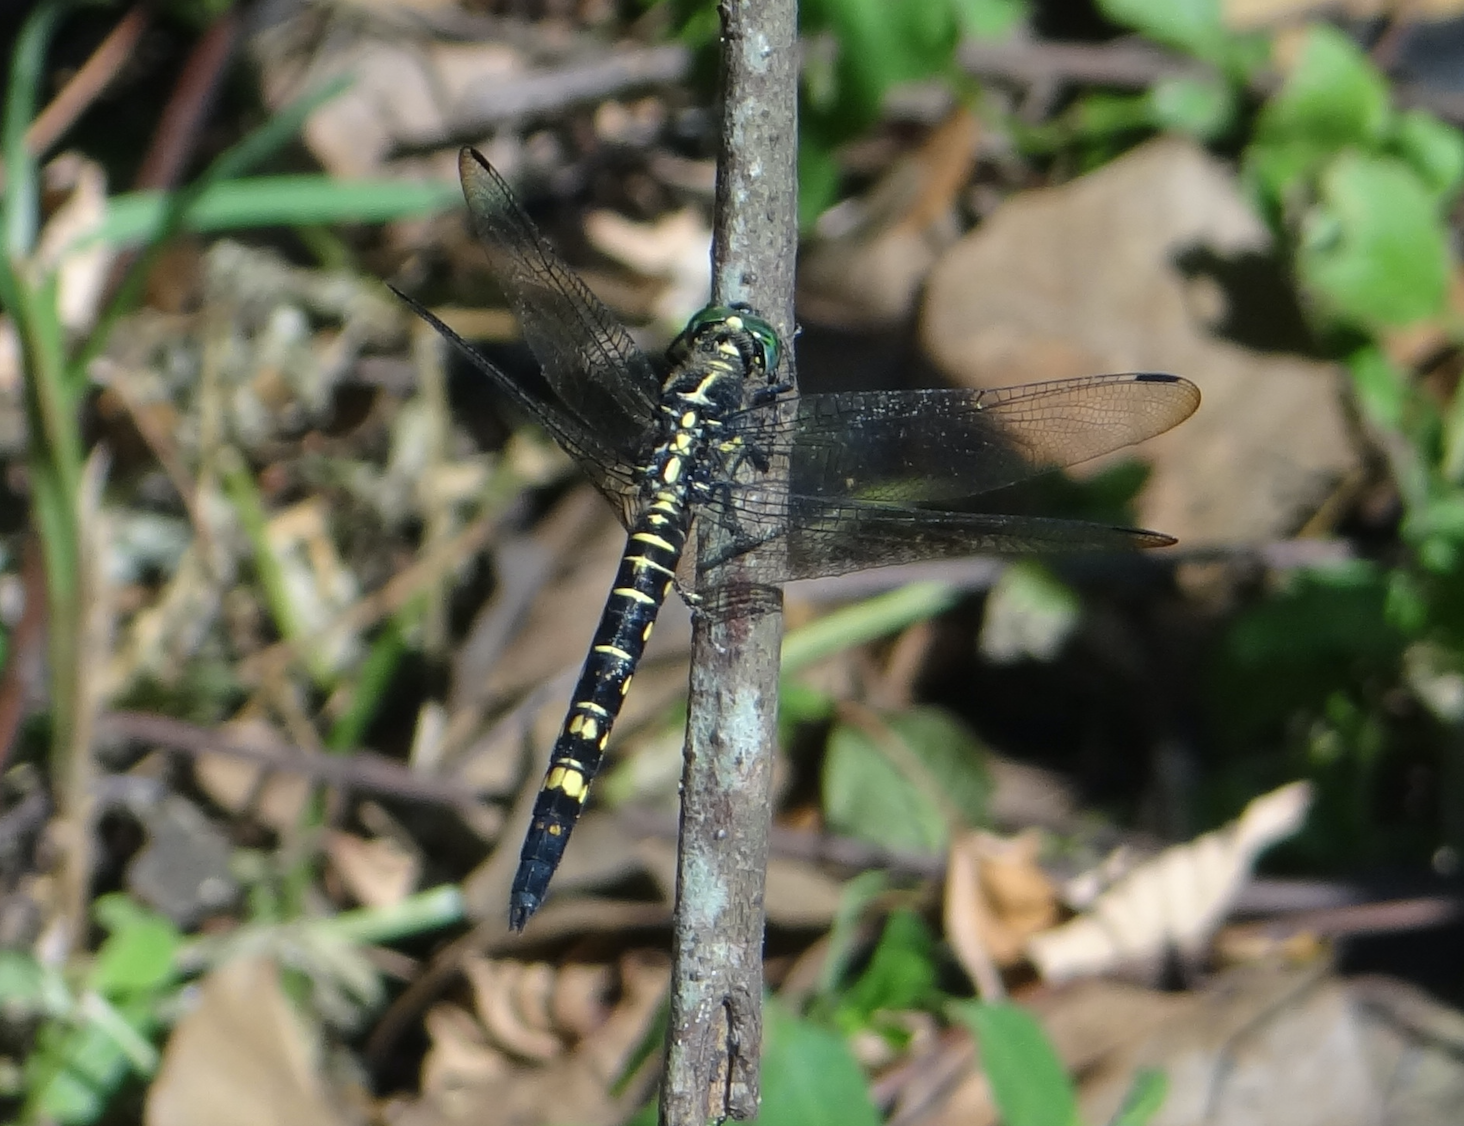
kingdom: Animalia
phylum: Arthropoda
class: Insecta
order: Odonata
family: Libellulidae
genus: Onychothemis
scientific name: Onychothemis tonkinensis
